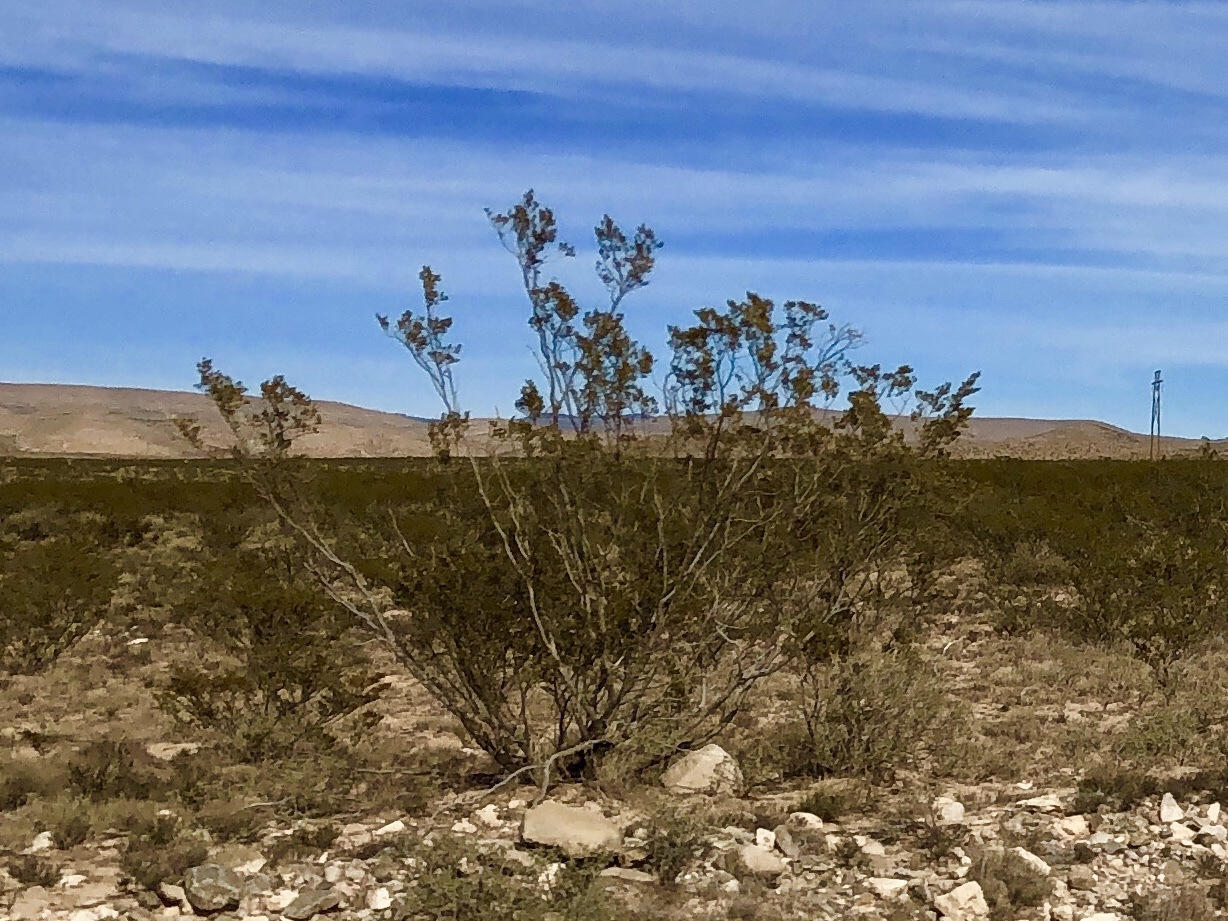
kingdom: Plantae
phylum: Tracheophyta
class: Magnoliopsida
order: Zygophyllales
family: Zygophyllaceae
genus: Larrea
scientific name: Larrea tridentata
